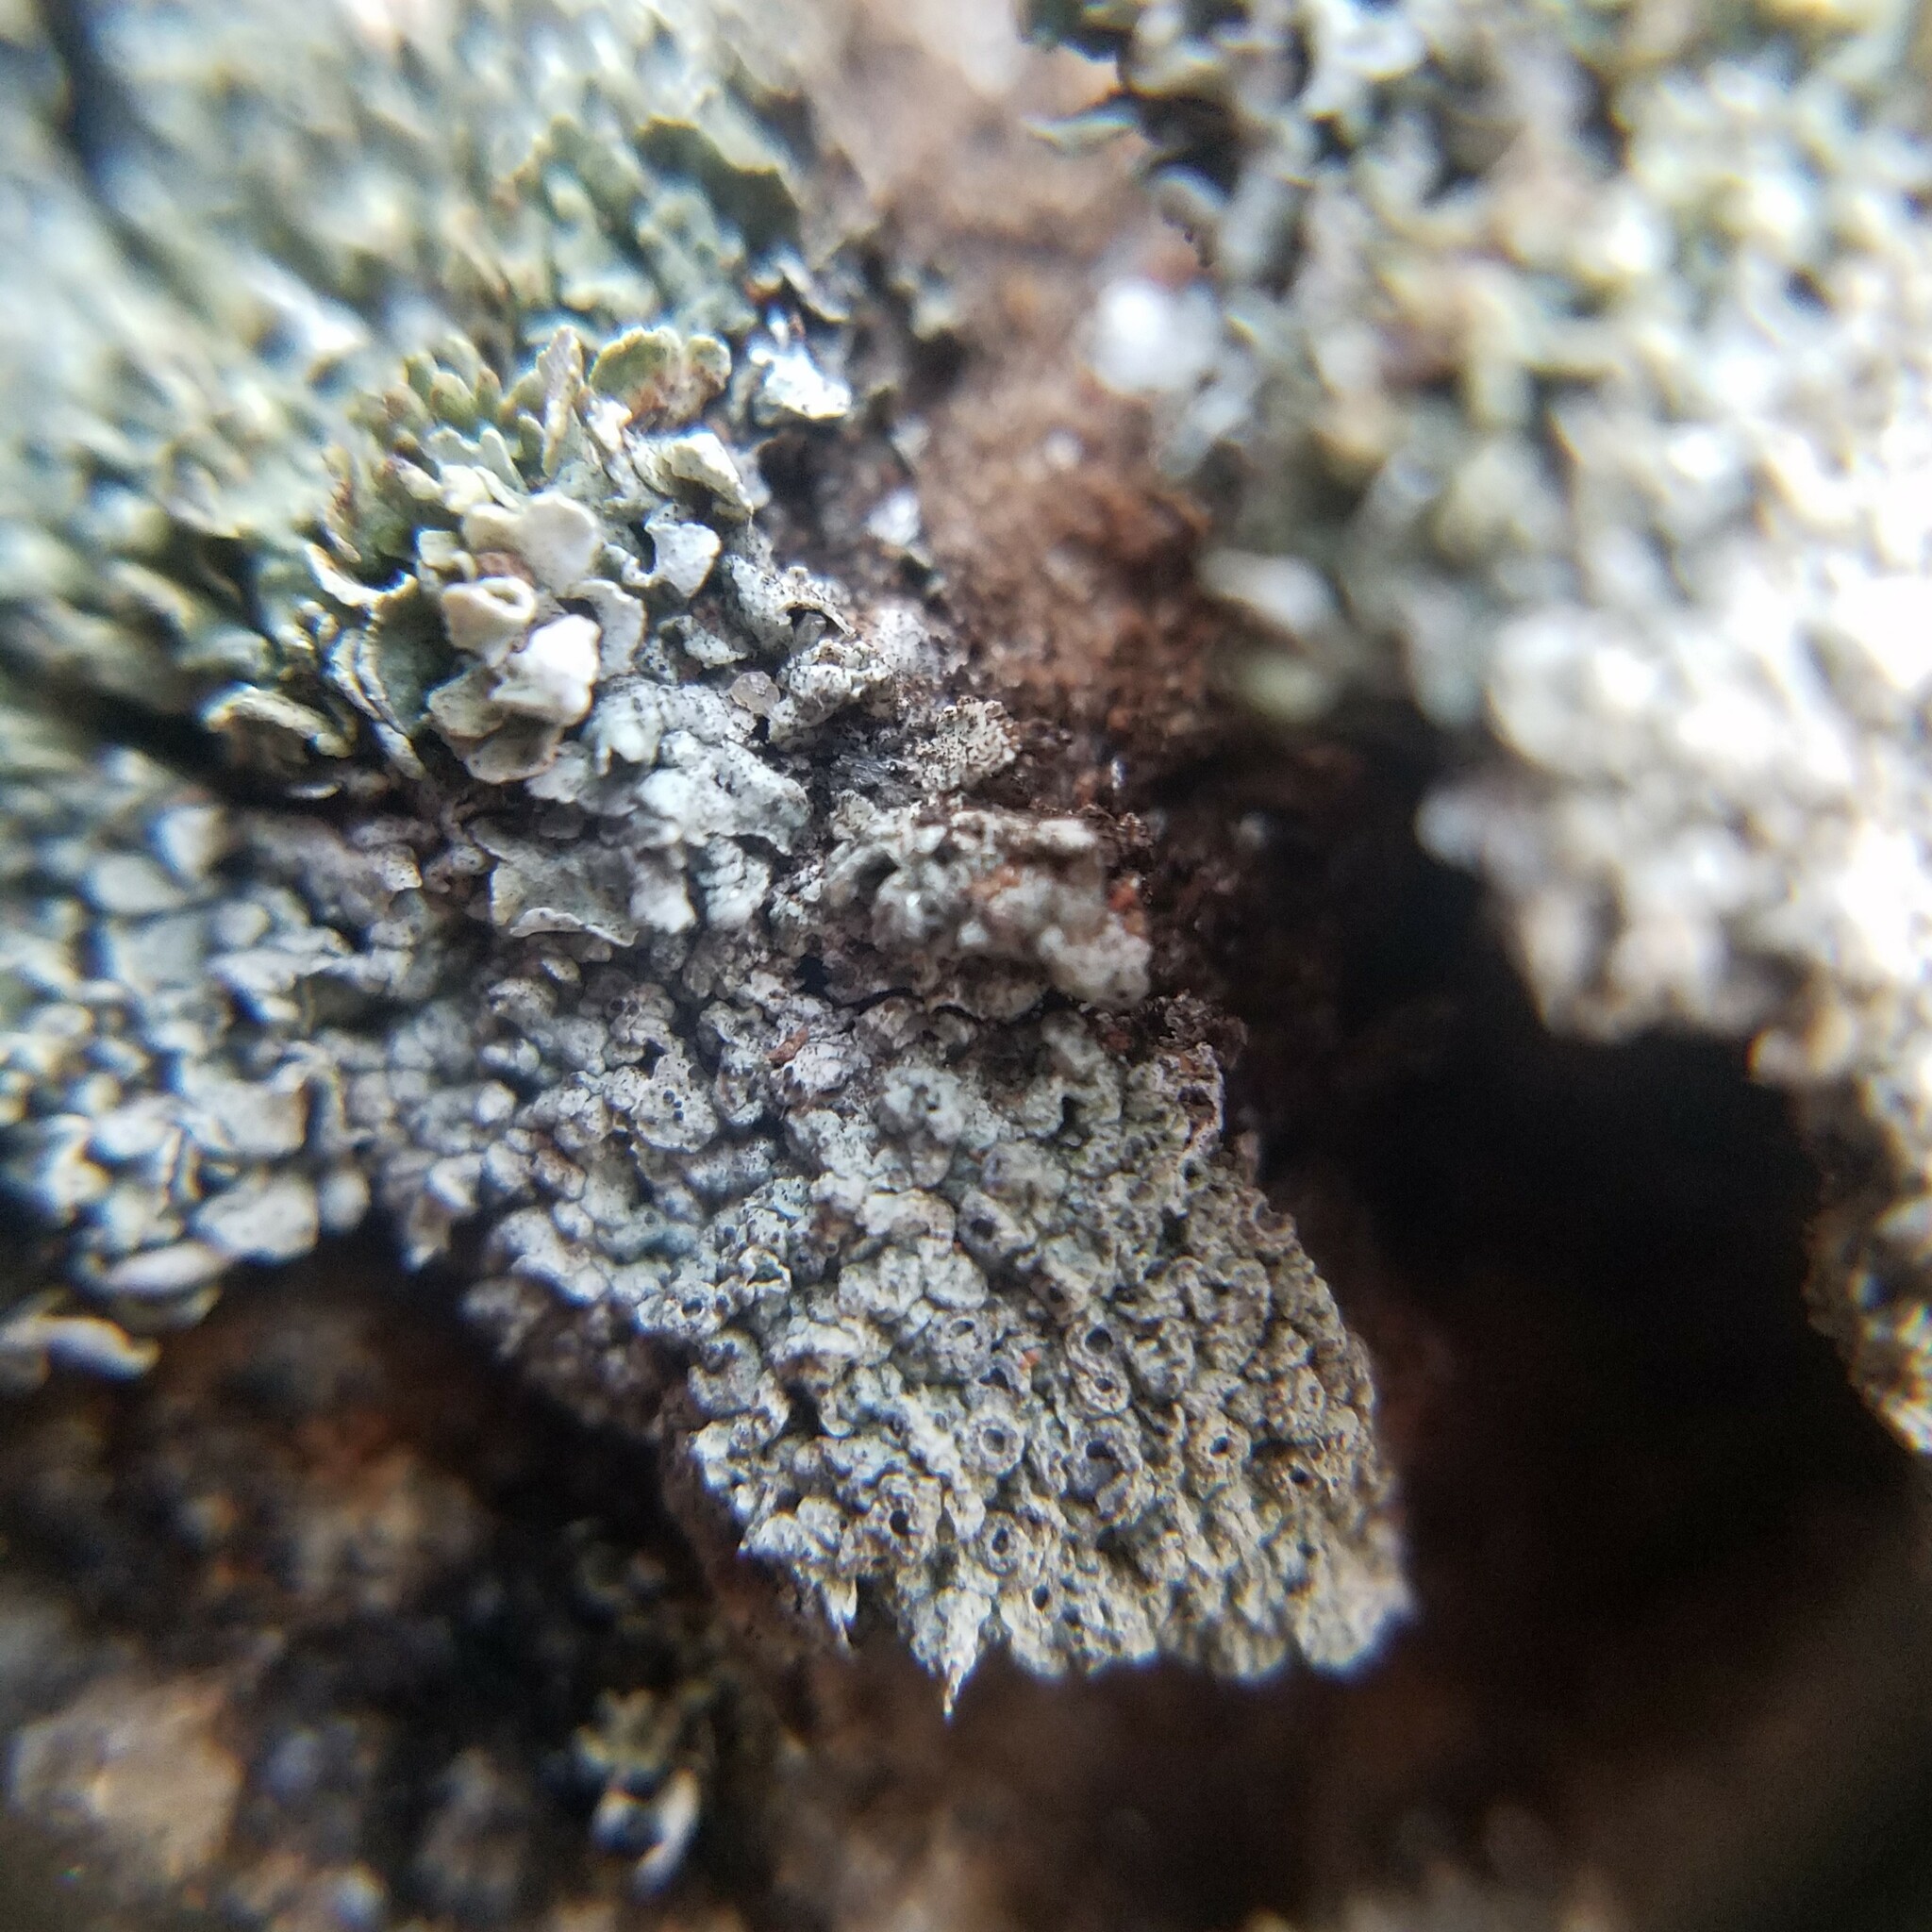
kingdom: Fungi
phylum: Ascomycota
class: Lecanoromycetes
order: Ostropales
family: Graphidaceae
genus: Diploschistes
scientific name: Diploschistes muscorum
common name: Cowpie lichen
